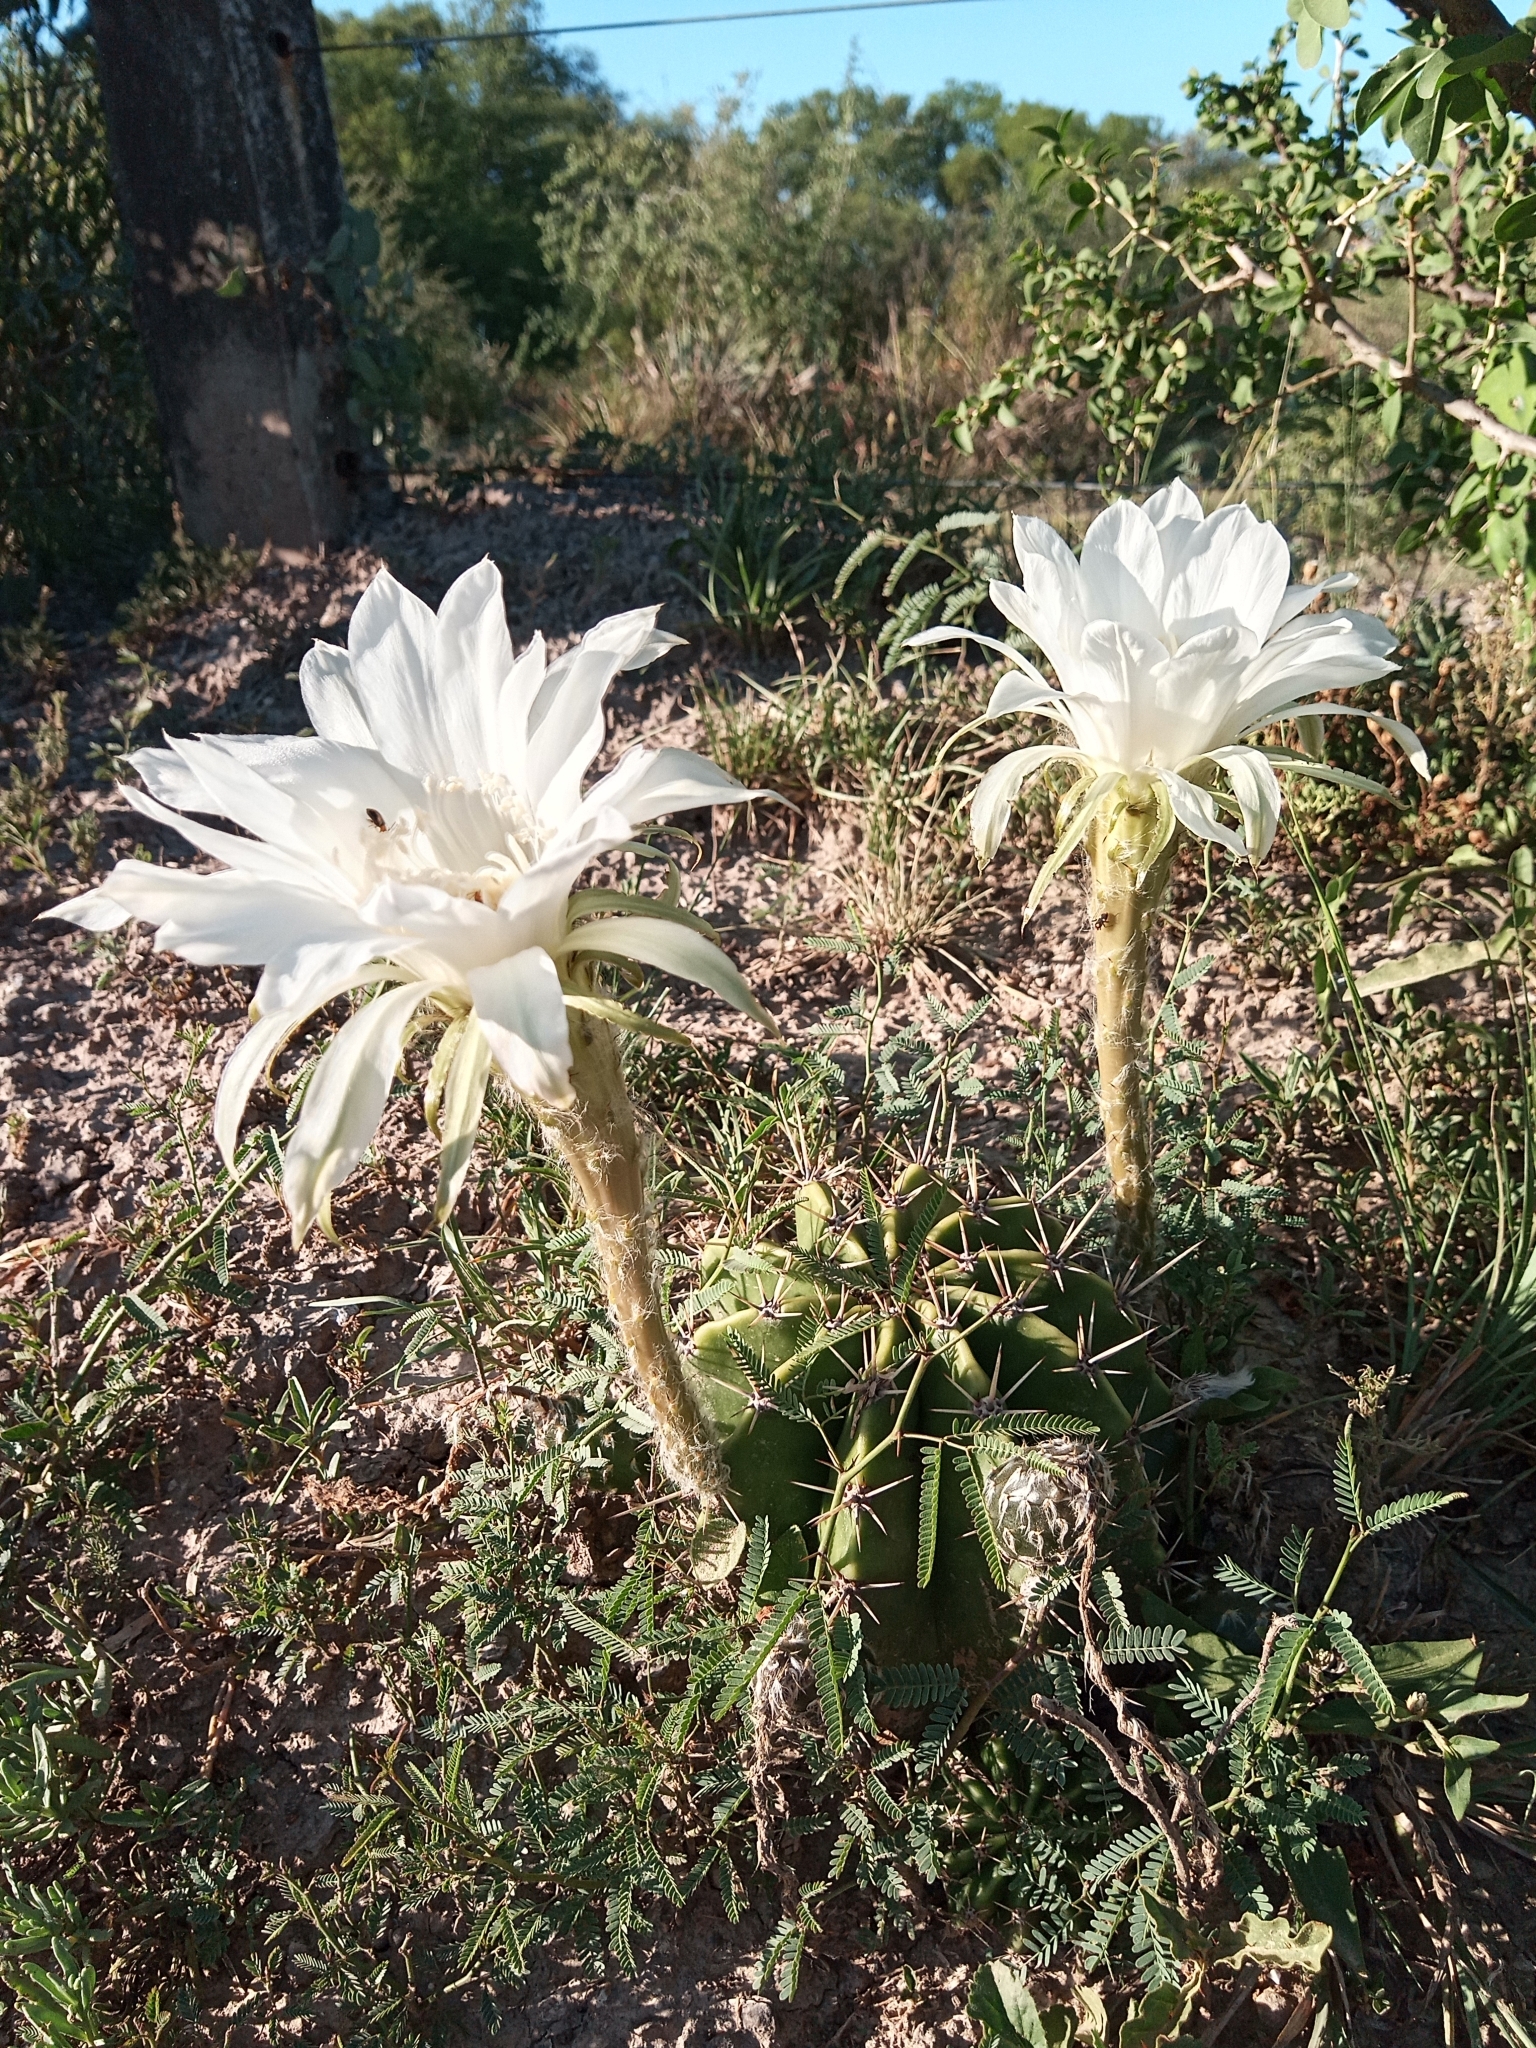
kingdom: Plantae
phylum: Tracheophyta
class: Magnoliopsida
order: Caryophyllales
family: Cactaceae
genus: Echinopsis
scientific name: Echinopsis oxygona
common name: Red easter-lily cactus
